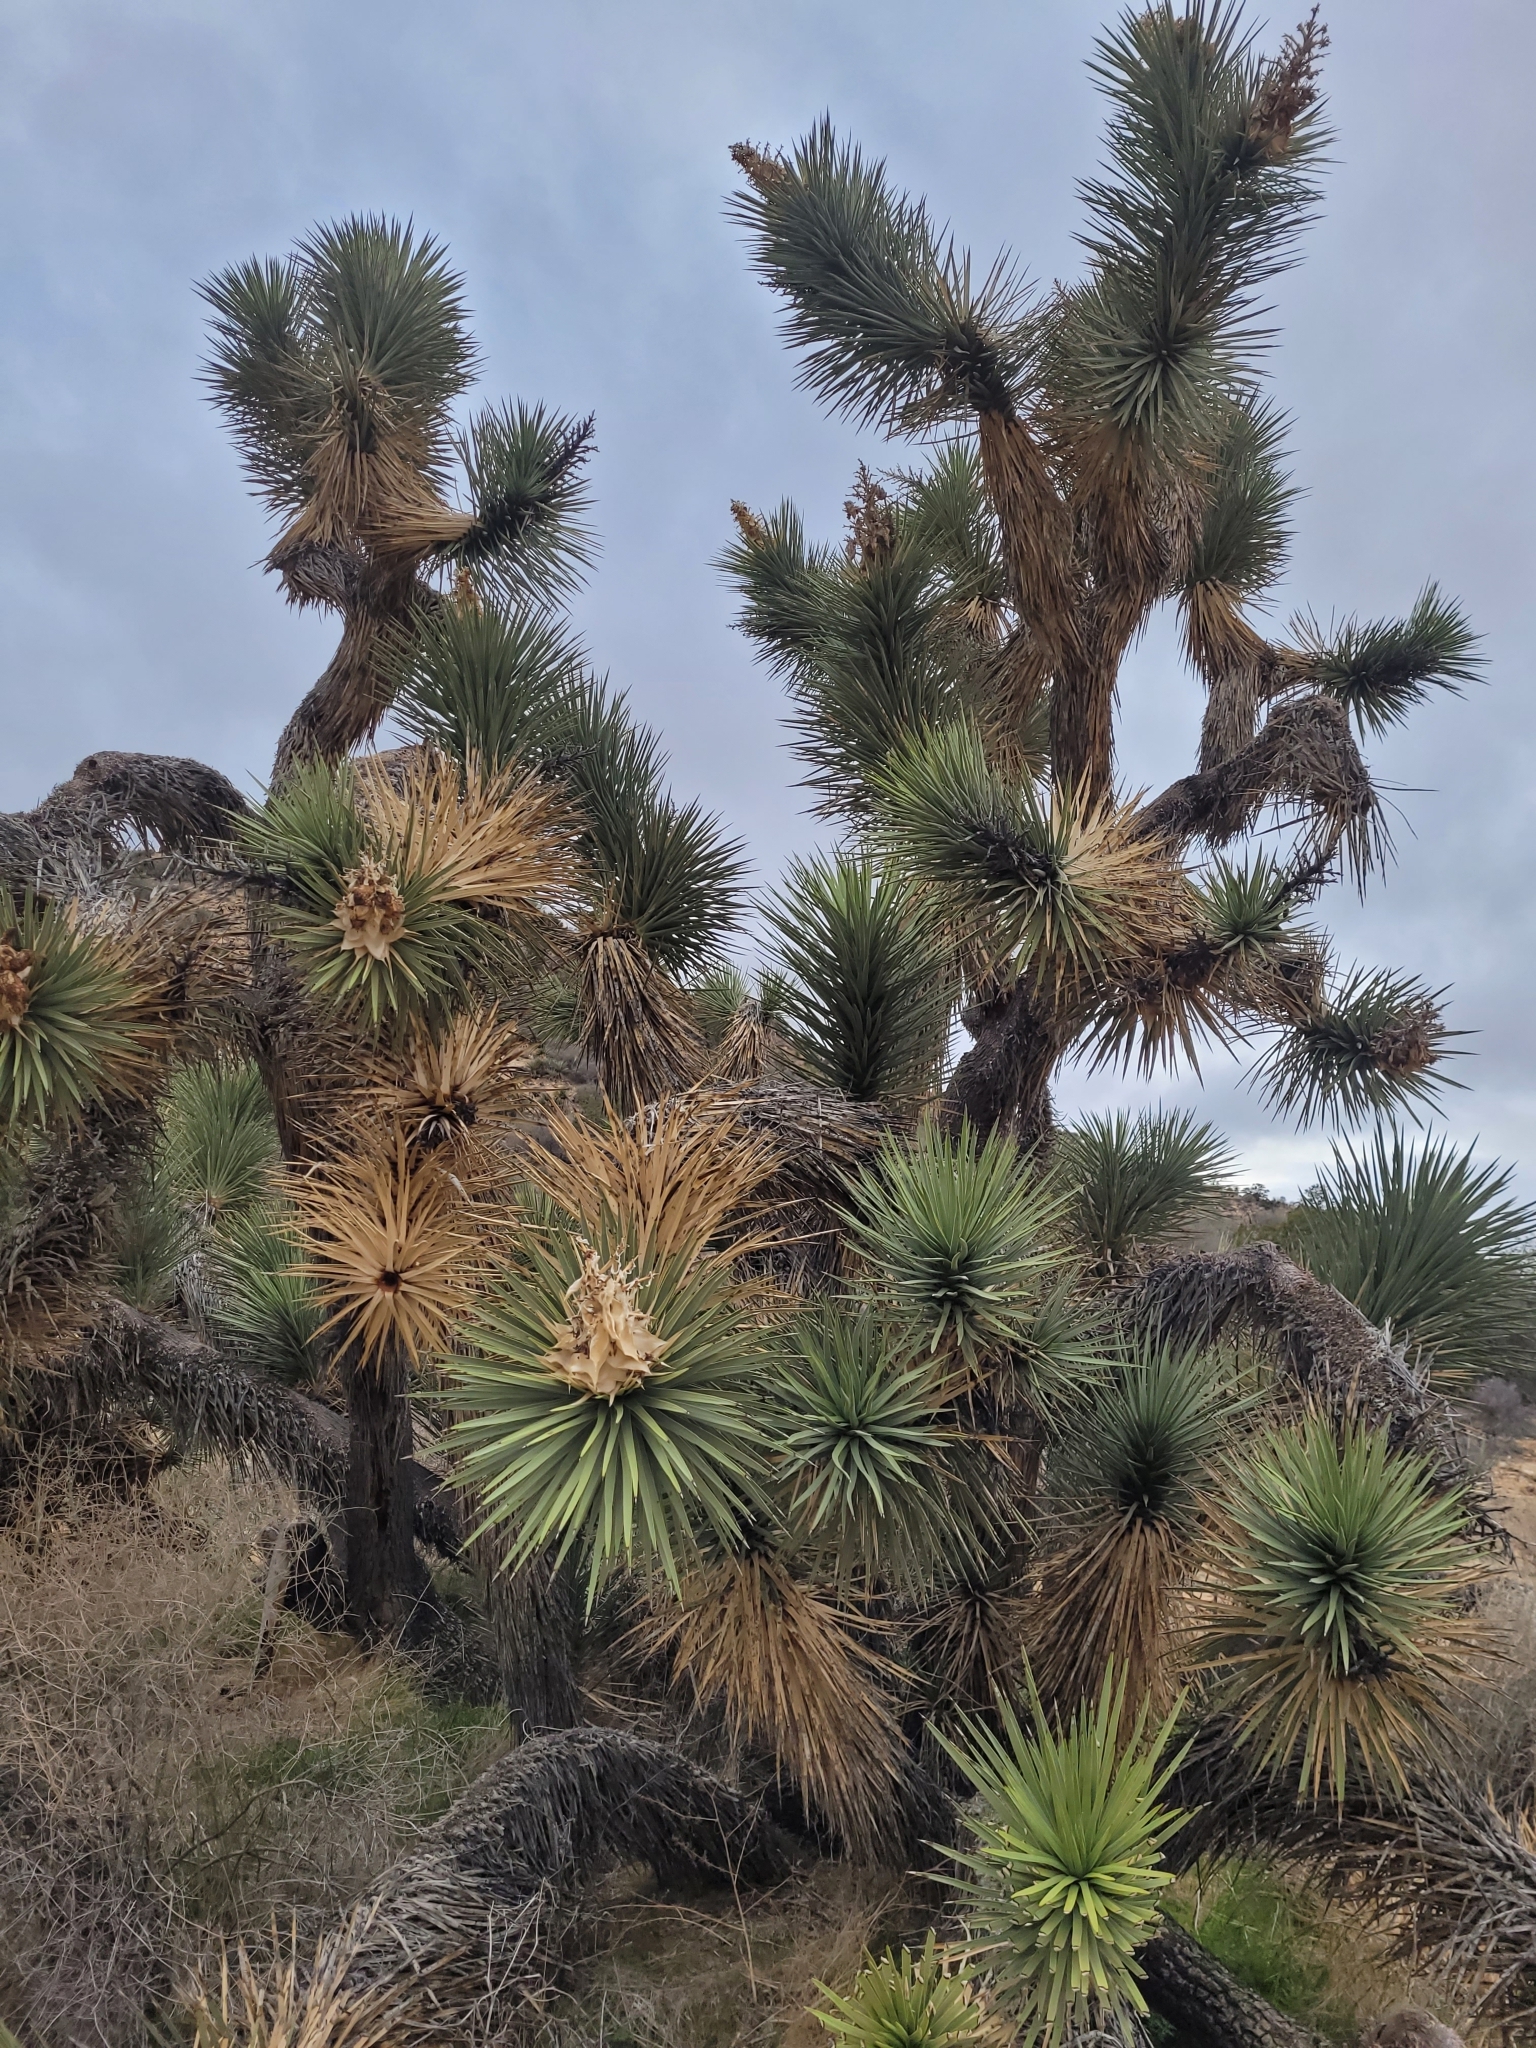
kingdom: Plantae
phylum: Tracheophyta
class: Liliopsida
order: Asparagales
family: Asparagaceae
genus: Yucca
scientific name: Yucca brevifolia
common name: Joshua tree
